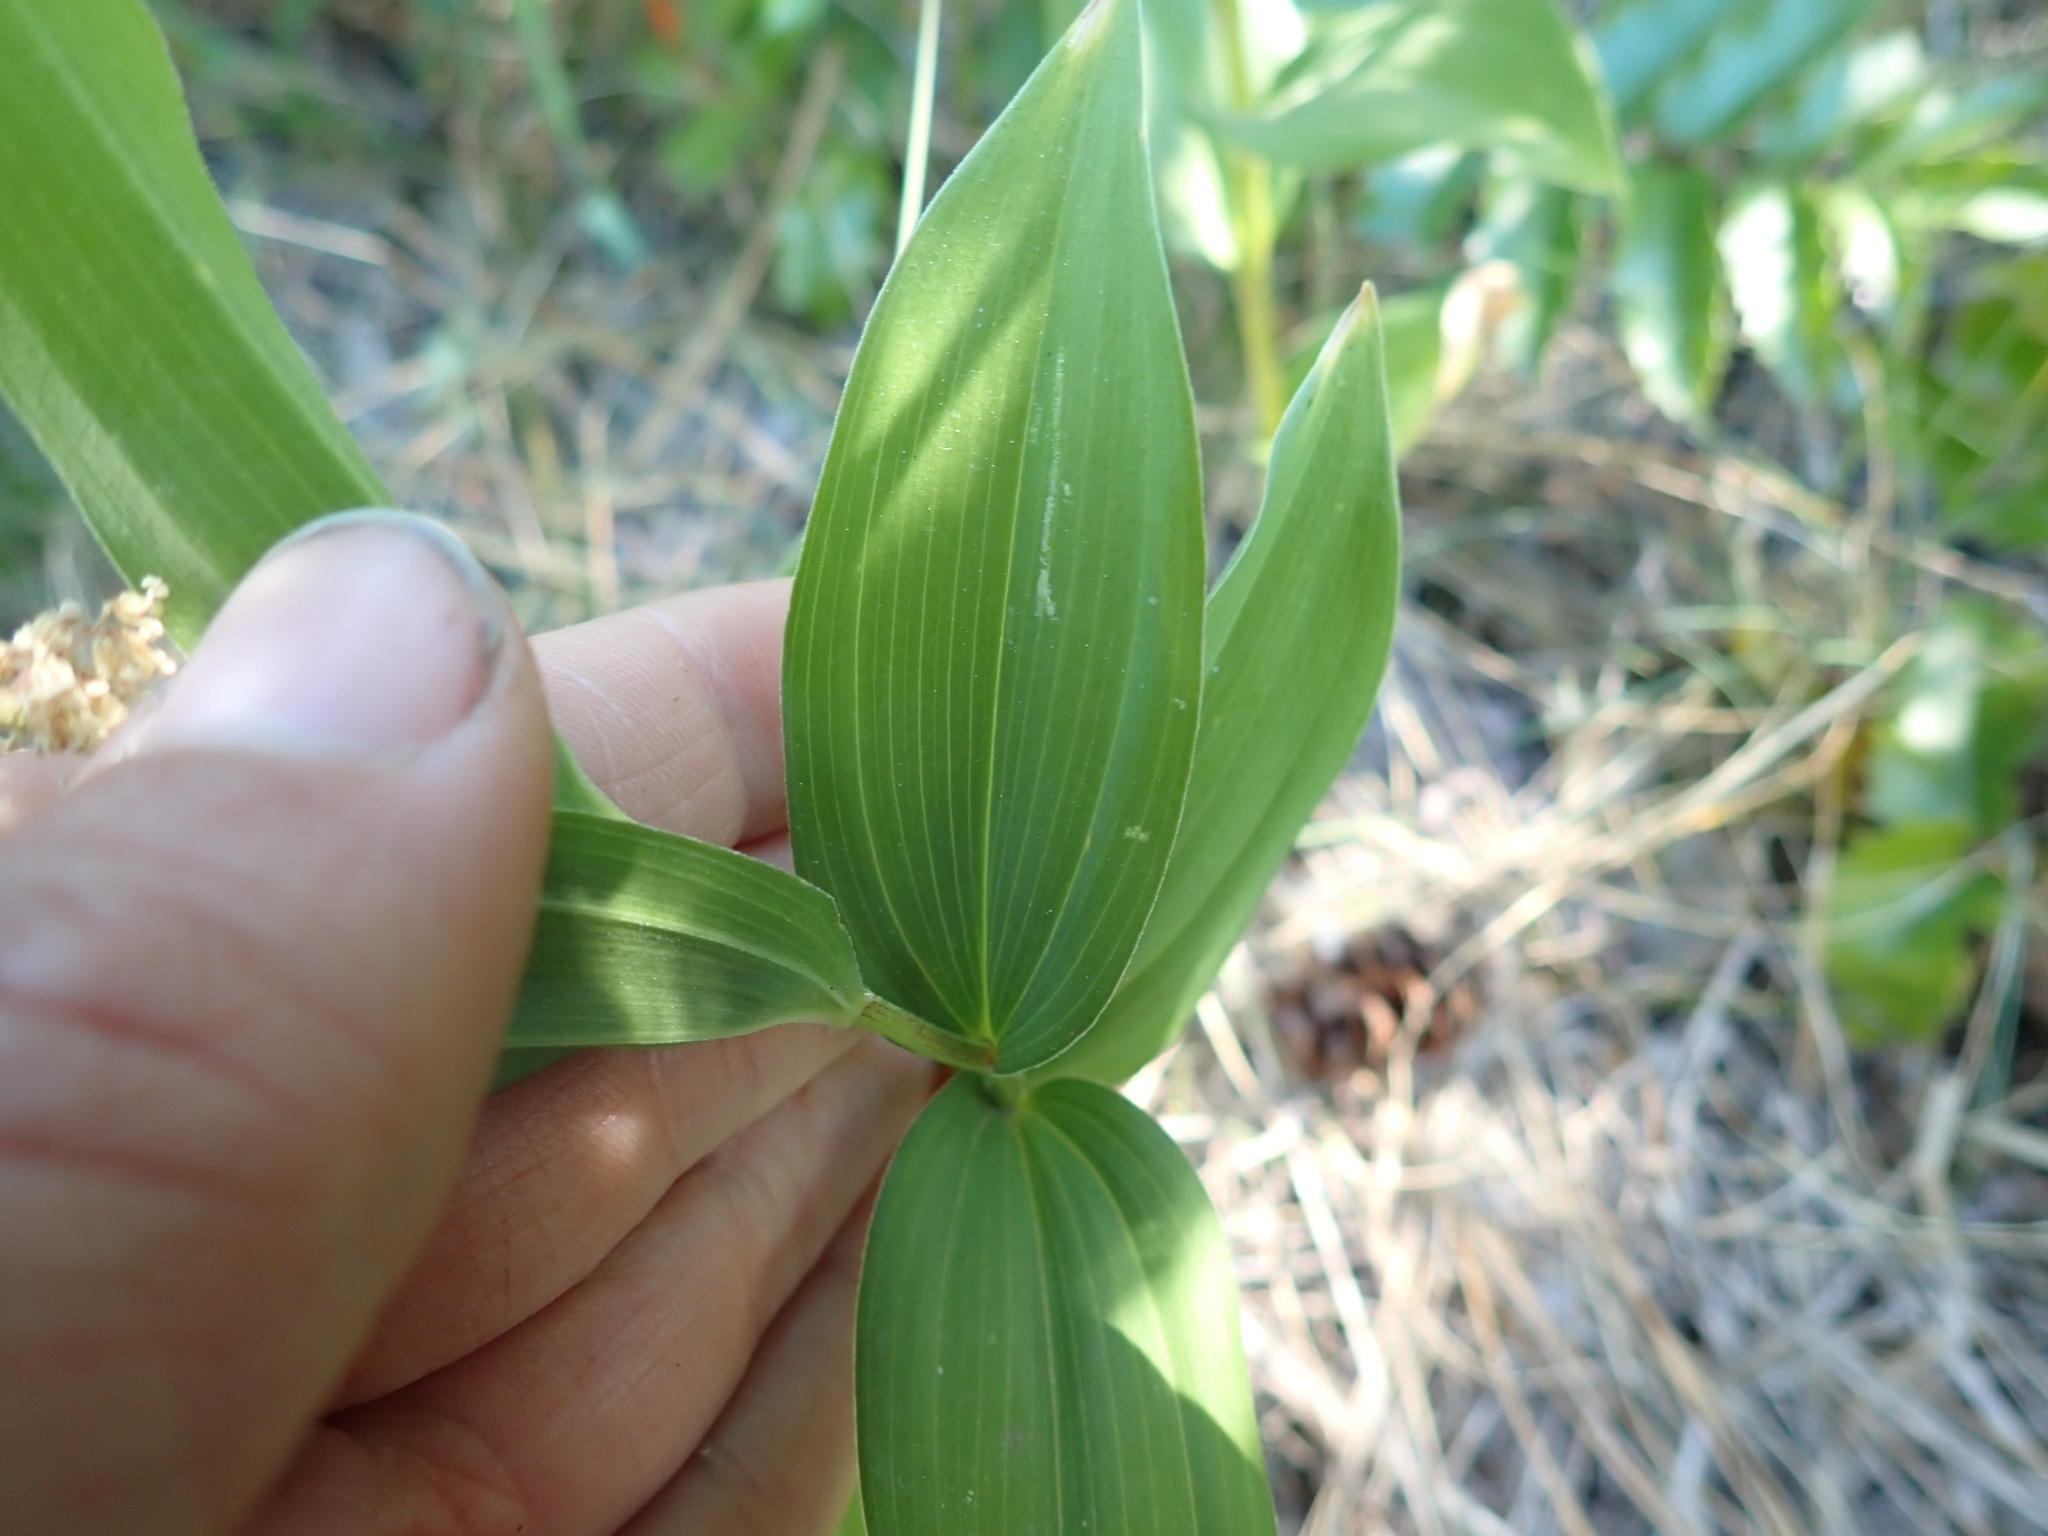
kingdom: Plantae
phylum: Tracheophyta
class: Liliopsida
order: Asparagales
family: Asparagaceae
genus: Maianthemum
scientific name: Maianthemum racemosum
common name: False spikenard
